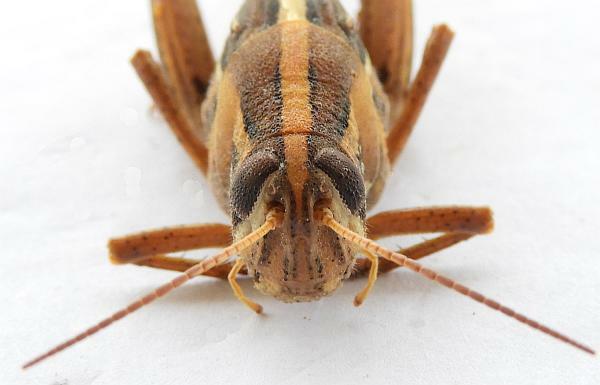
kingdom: Animalia
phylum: Arthropoda
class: Insecta
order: Orthoptera
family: Acrididae
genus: Schistocerca
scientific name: Schistocerca serialis
